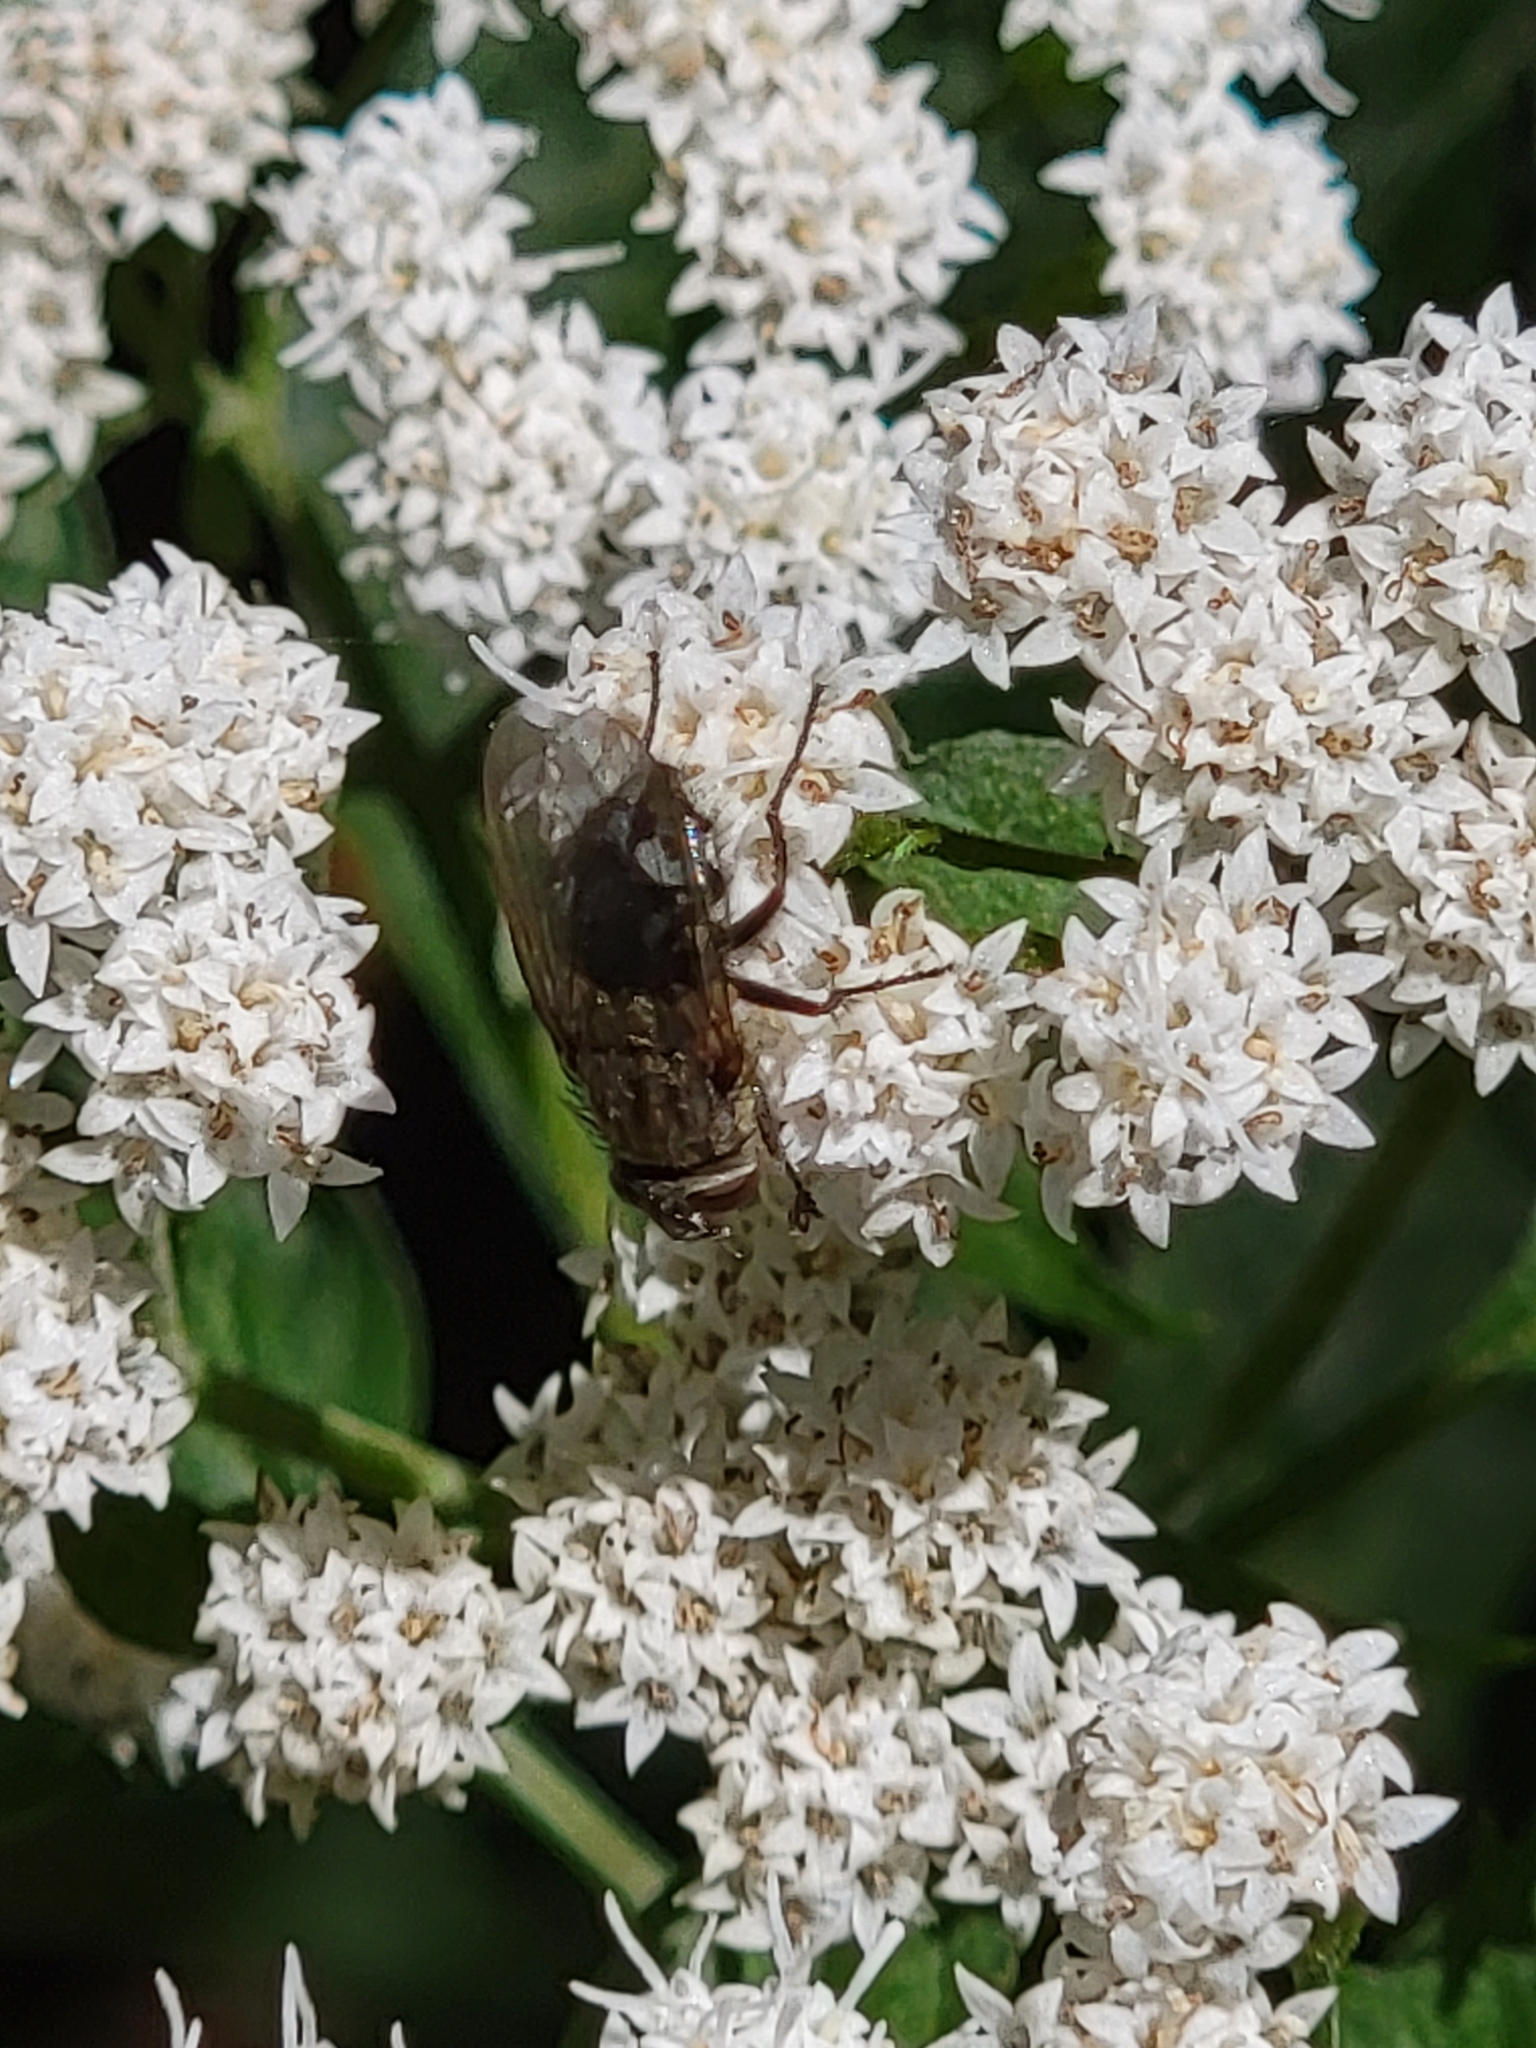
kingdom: Animalia
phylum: Arthropoda
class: Insecta
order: Diptera
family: Polleniidae
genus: Pollenia
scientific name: Pollenia
